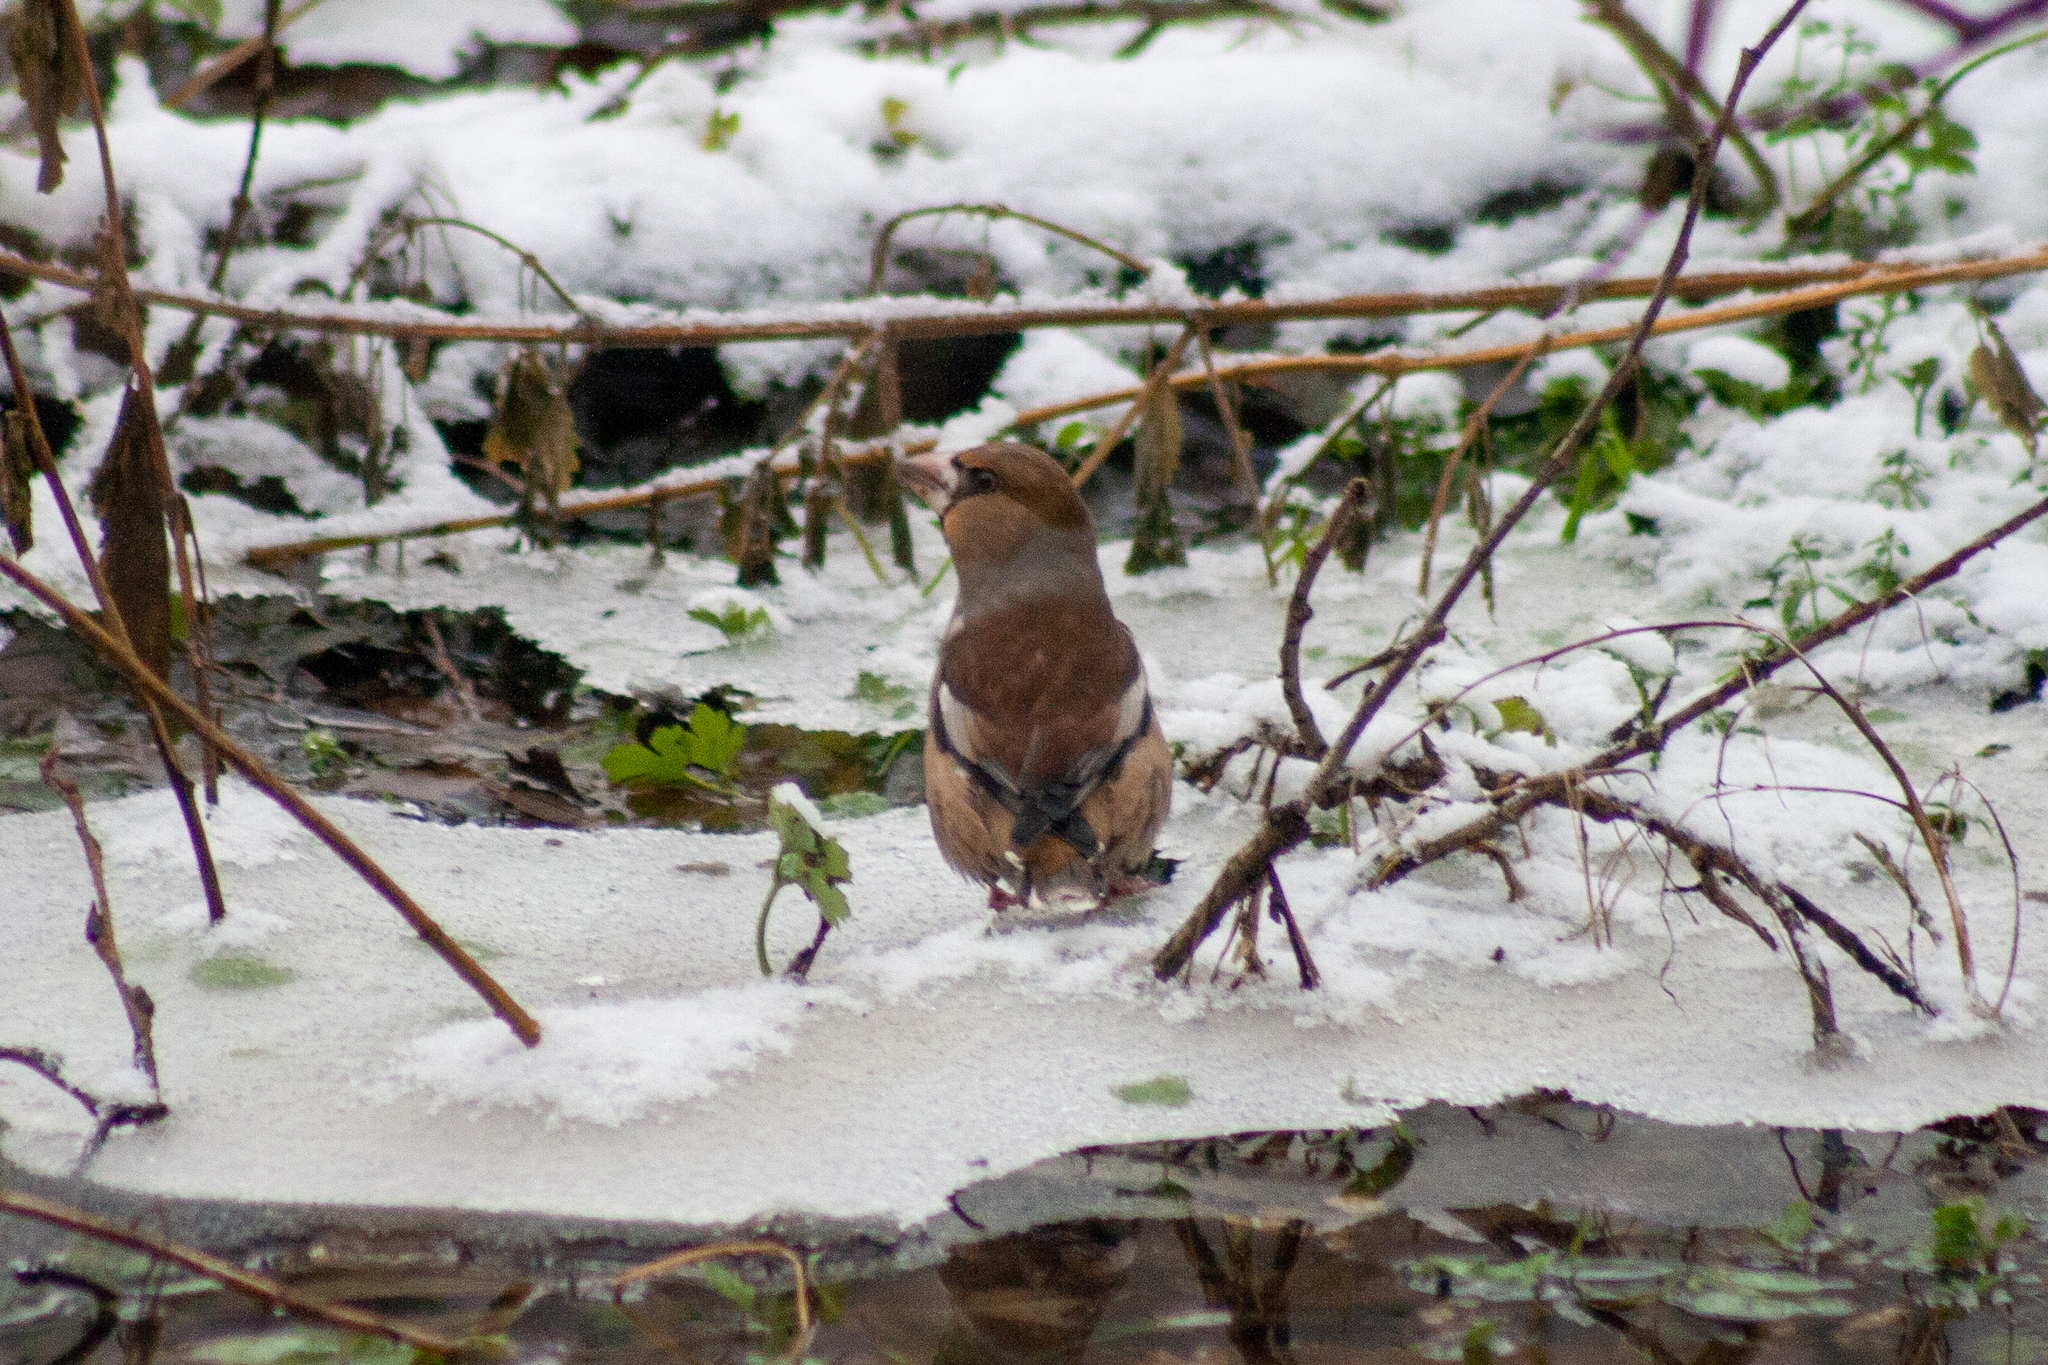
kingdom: Animalia
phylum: Chordata
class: Aves
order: Passeriformes
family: Fringillidae
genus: Coccothraustes
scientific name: Coccothraustes coccothraustes
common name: Hawfinch
